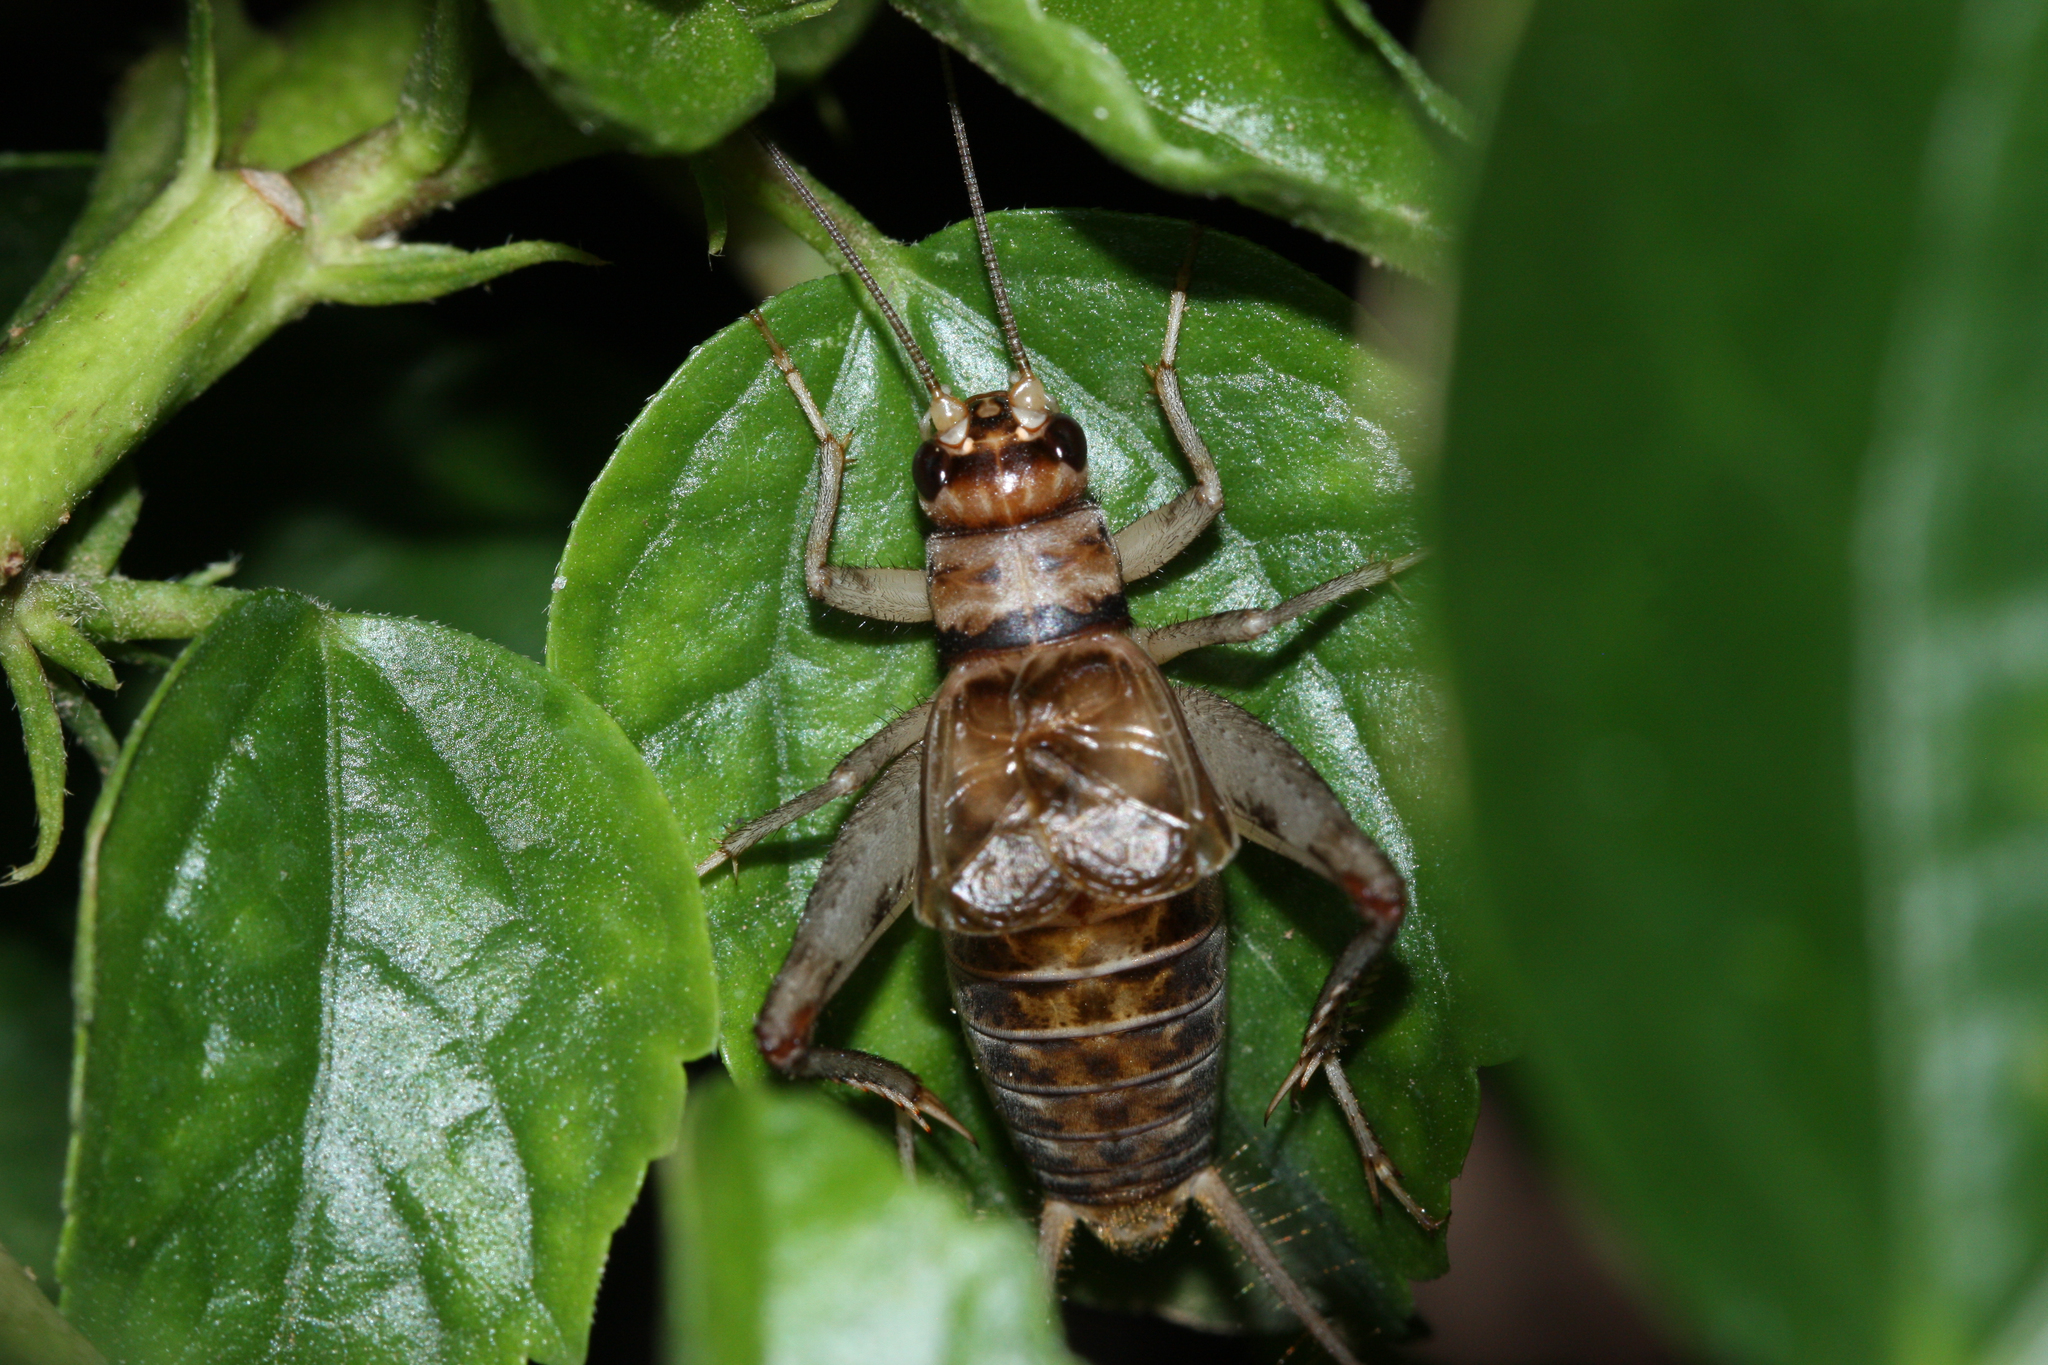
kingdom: Animalia
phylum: Arthropoda
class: Insecta
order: Orthoptera
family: Gryllidae
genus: Gryllodes
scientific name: Gryllodes sigillatus
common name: Tropical house cricket
